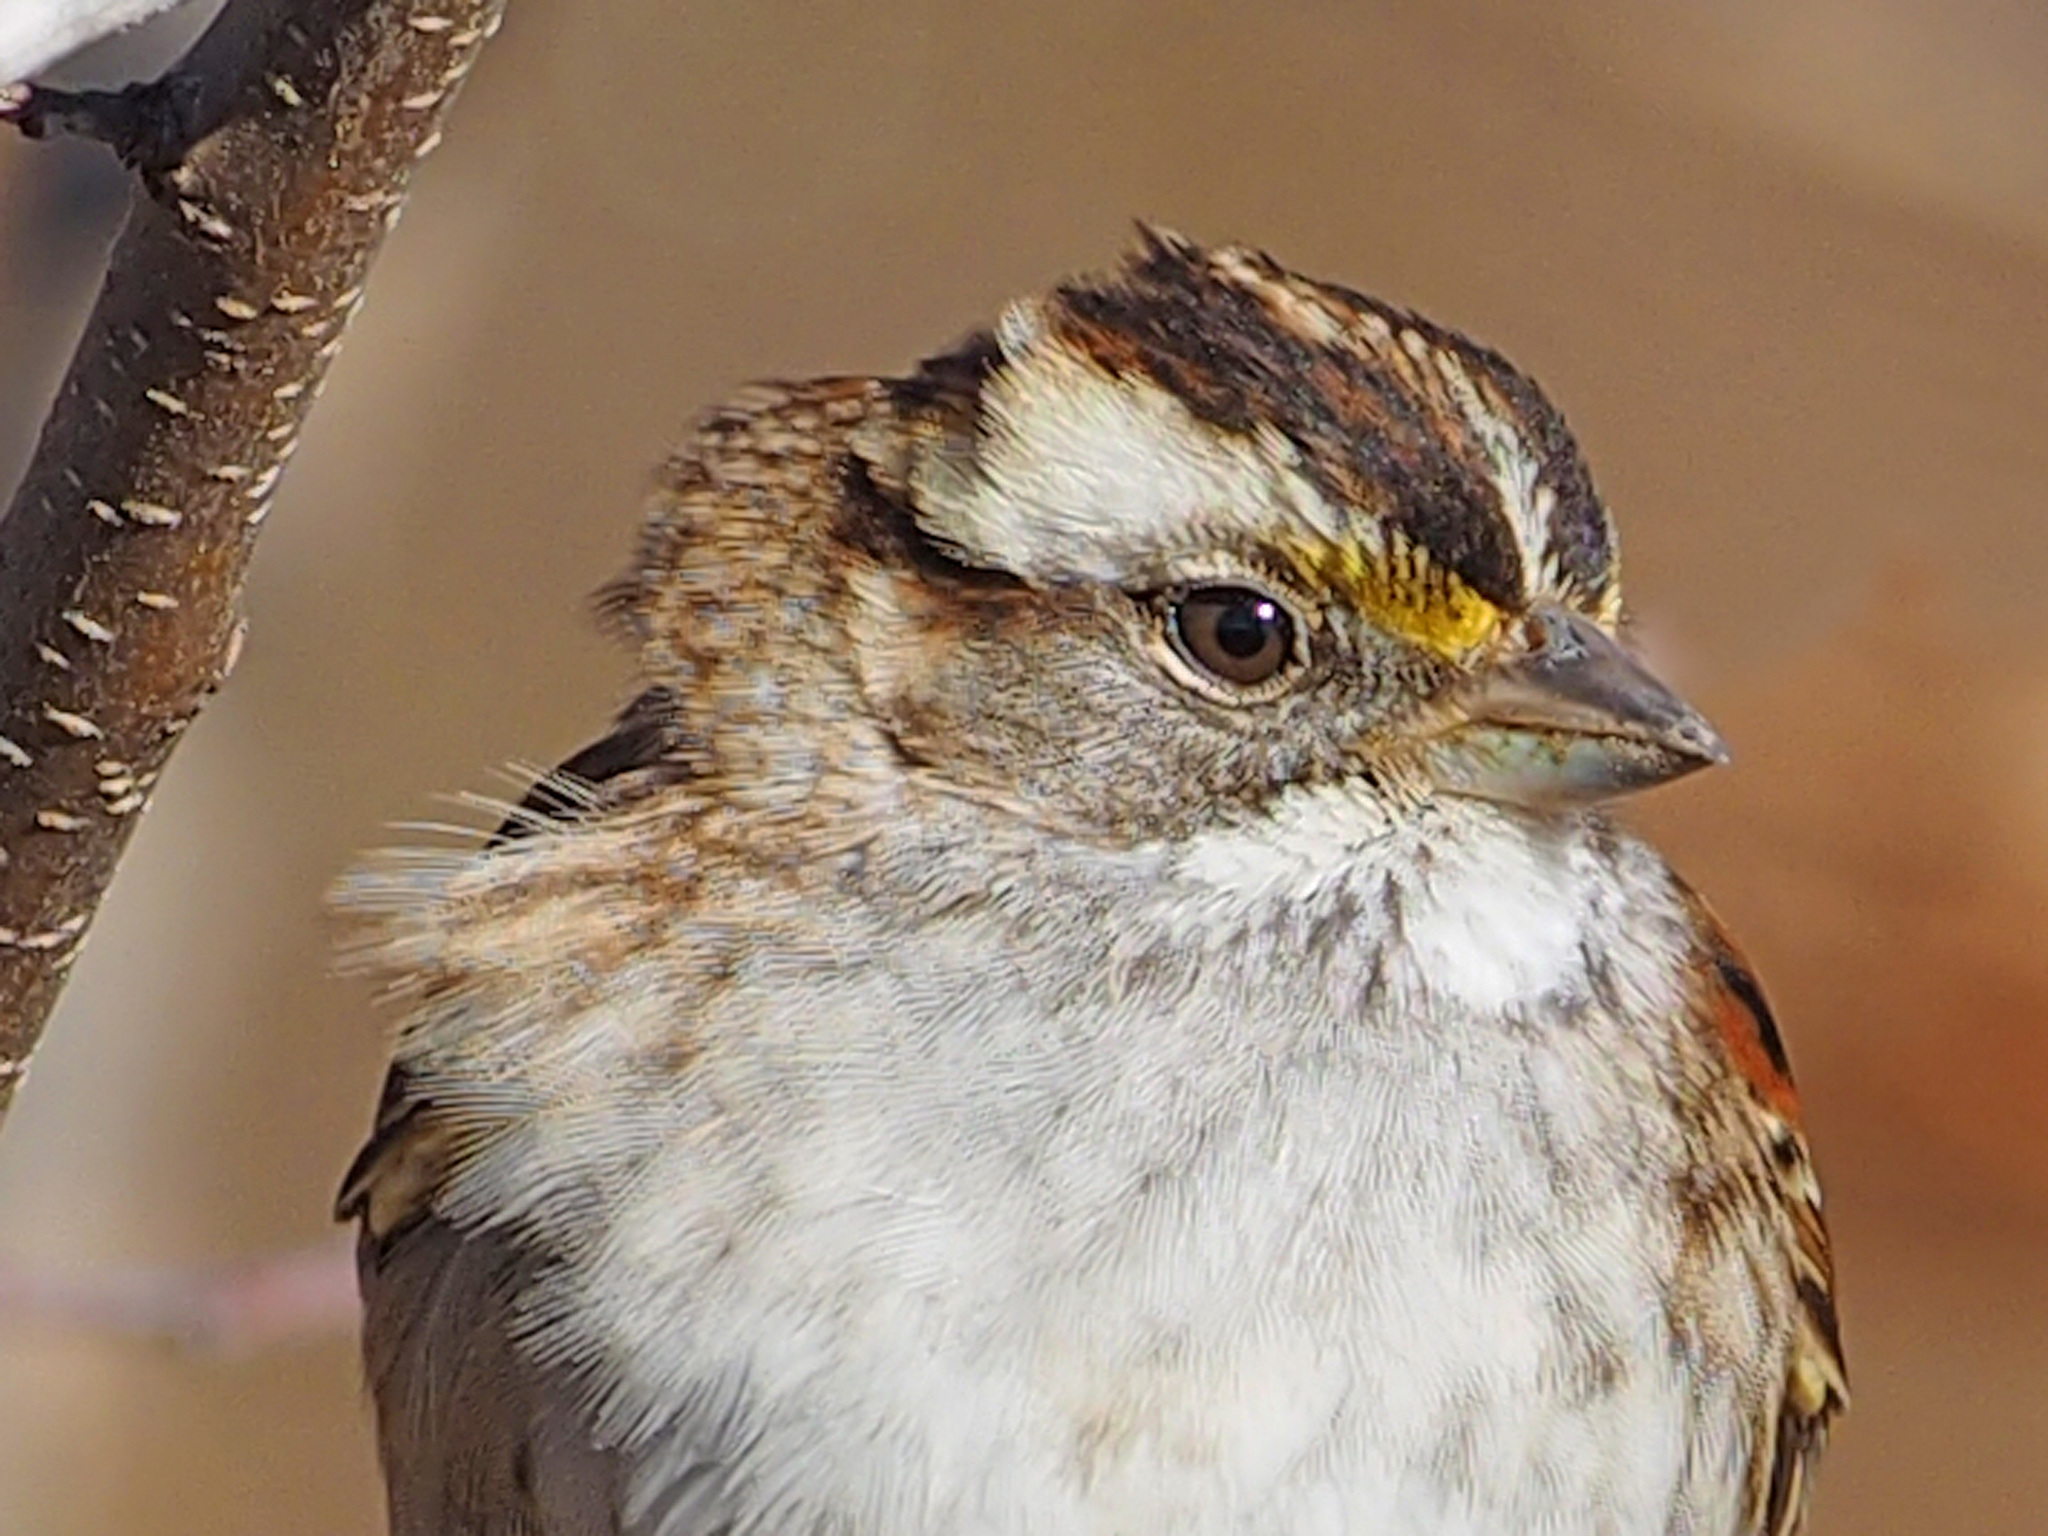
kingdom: Animalia
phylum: Chordata
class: Aves
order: Passeriformes
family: Passerellidae
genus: Zonotrichia
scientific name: Zonotrichia albicollis
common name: White-throated sparrow
